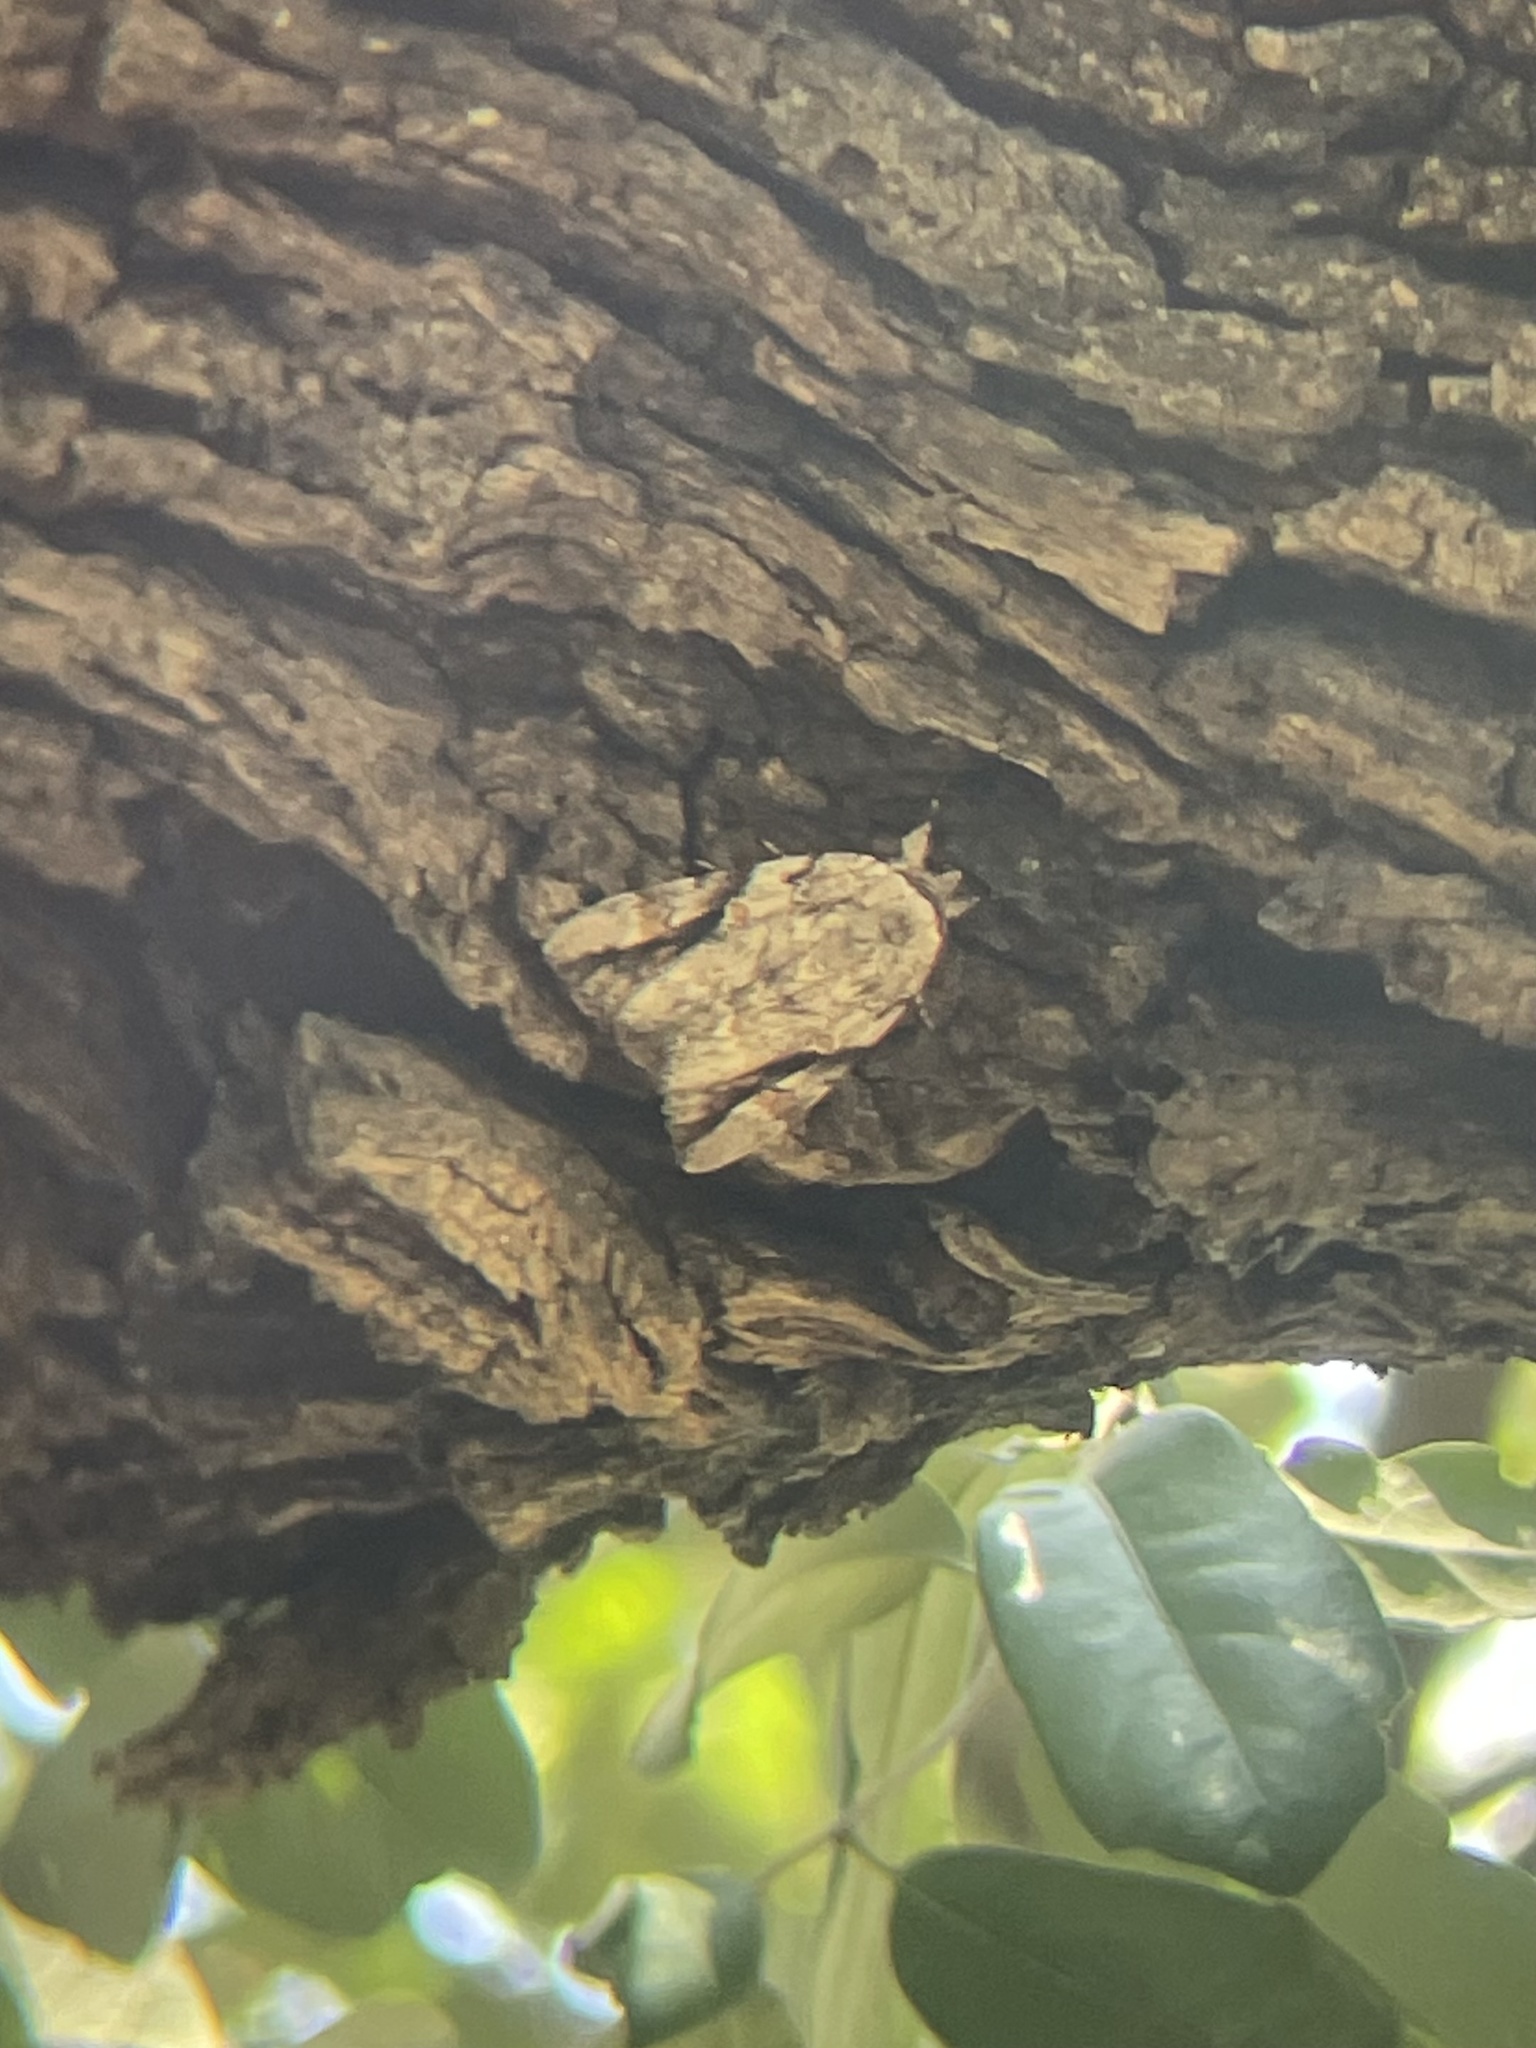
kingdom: Animalia
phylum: Arthropoda
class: Insecta
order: Lepidoptera
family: Erebidae
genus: Catocala
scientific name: Catocala maestosa
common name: Sad underwing
